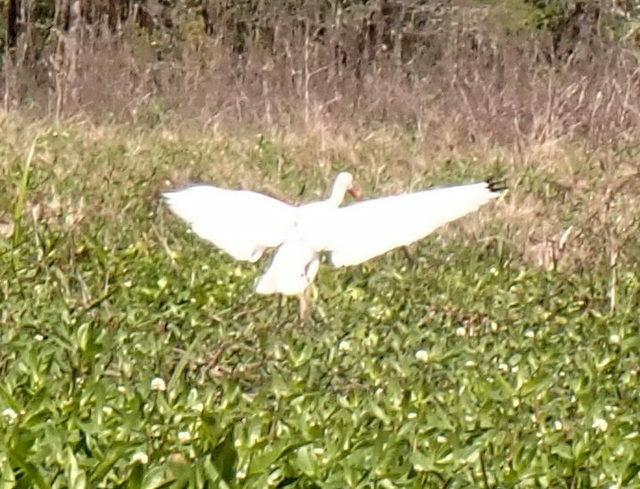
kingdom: Animalia
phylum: Chordata
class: Aves
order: Pelecaniformes
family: Threskiornithidae
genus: Eudocimus
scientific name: Eudocimus albus
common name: White ibis
